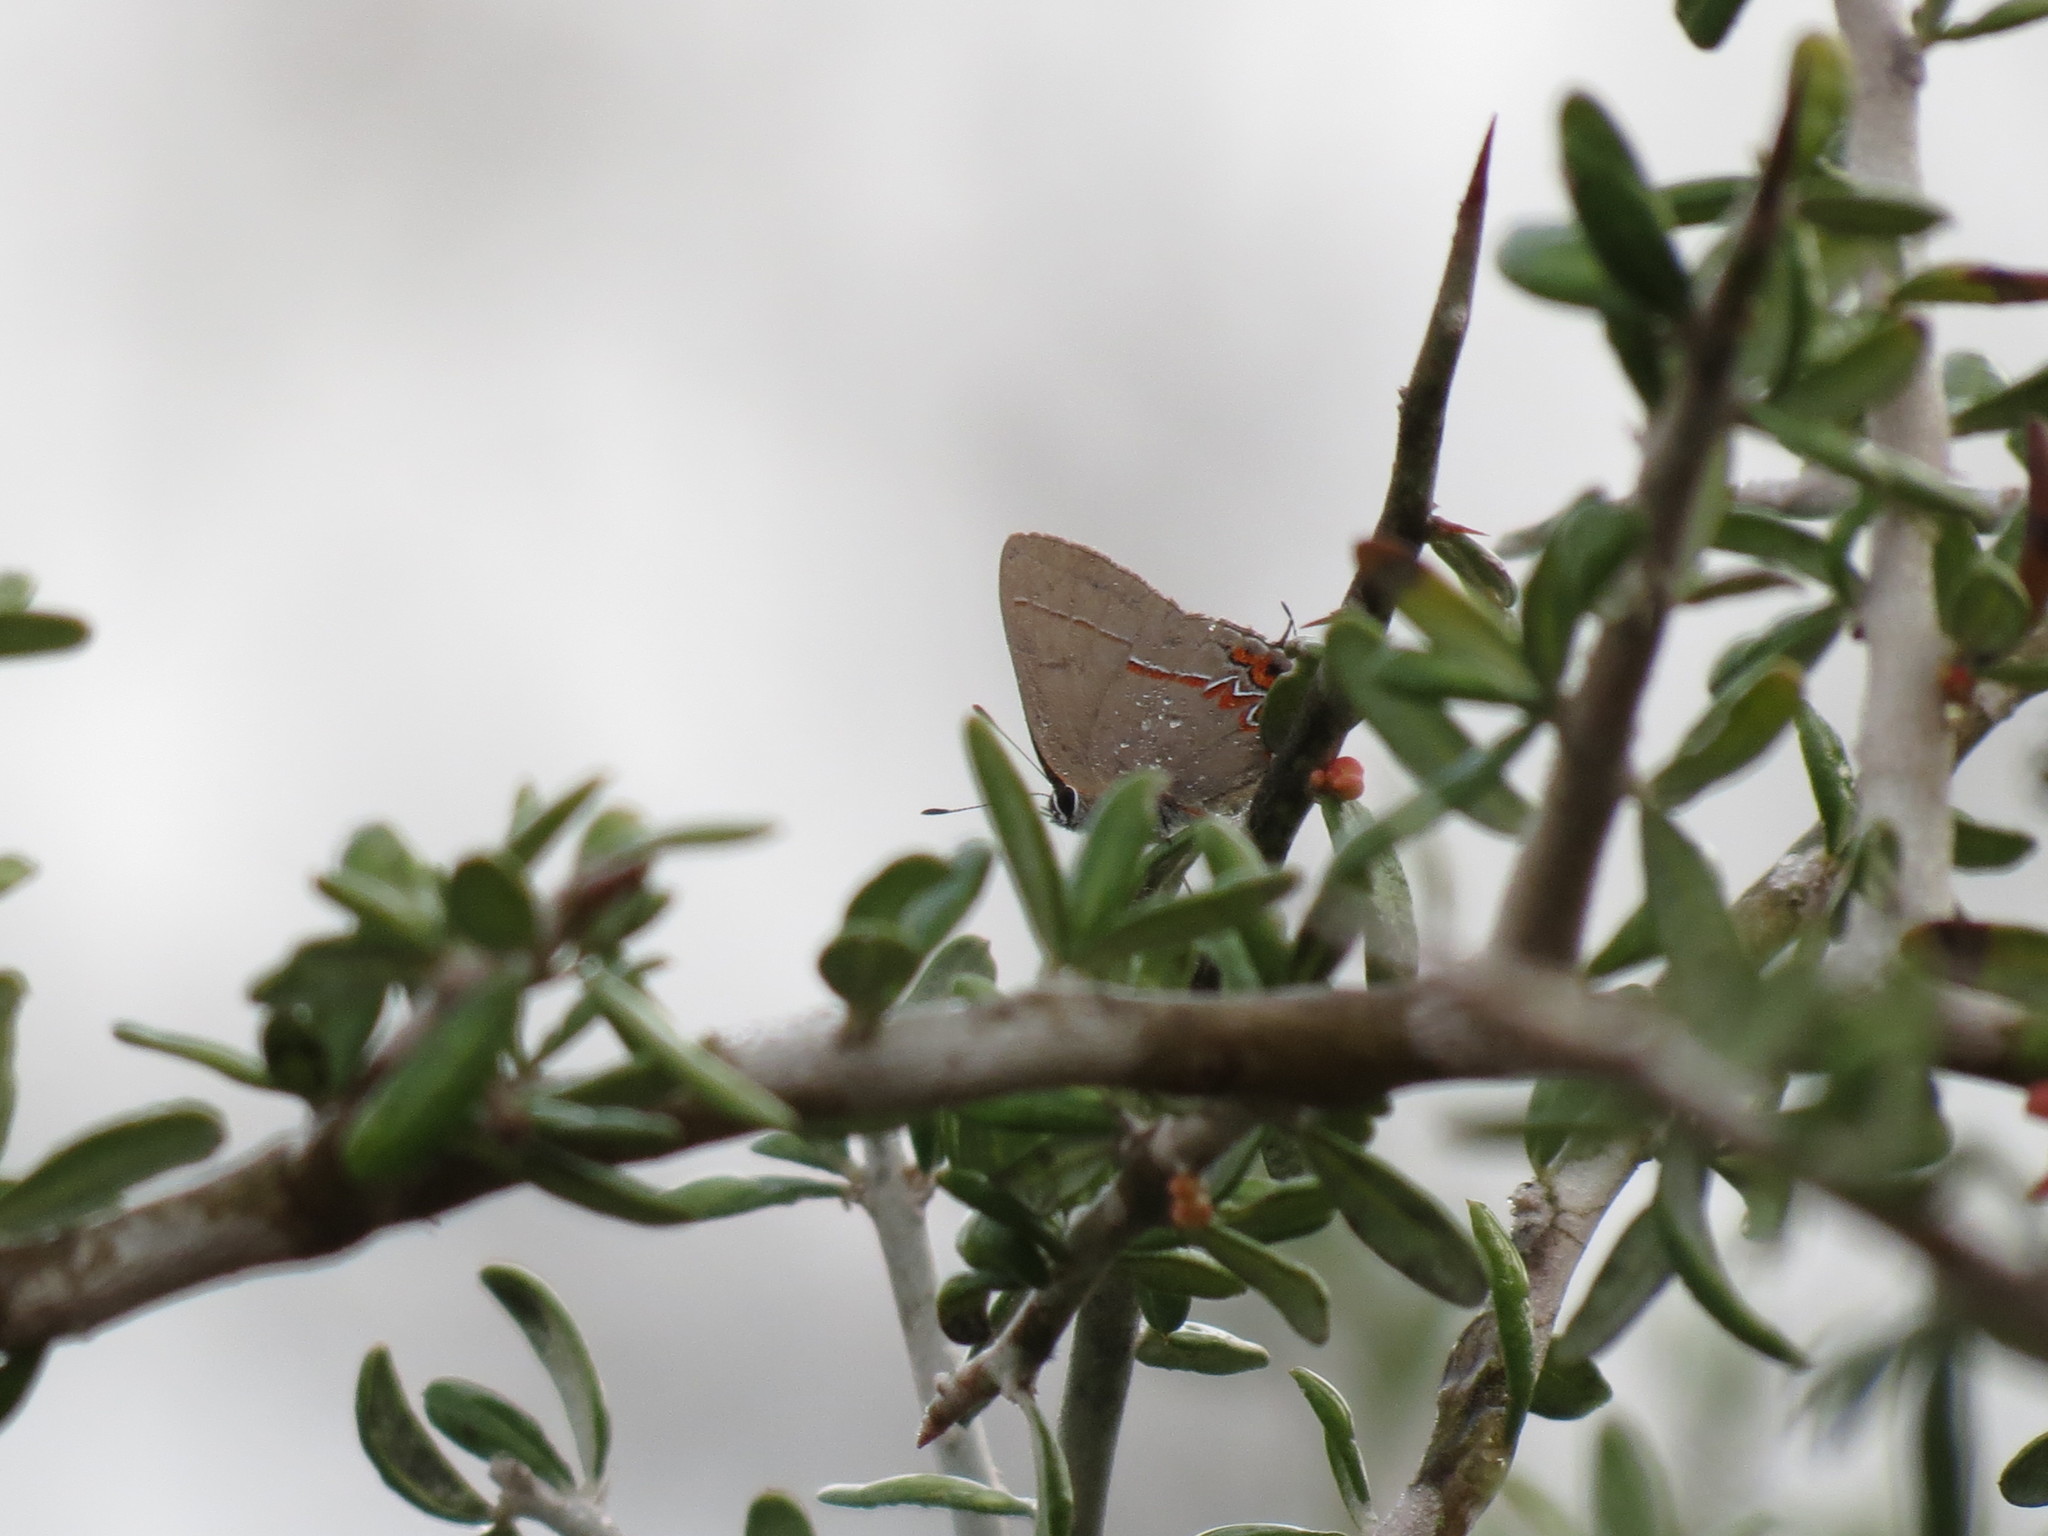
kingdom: Animalia
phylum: Arthropoda
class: Insecta
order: Lepidoptera
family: Lycaenidae
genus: Calycopis
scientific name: Calycopis isobeon
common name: Dusky-blue groundstreak
